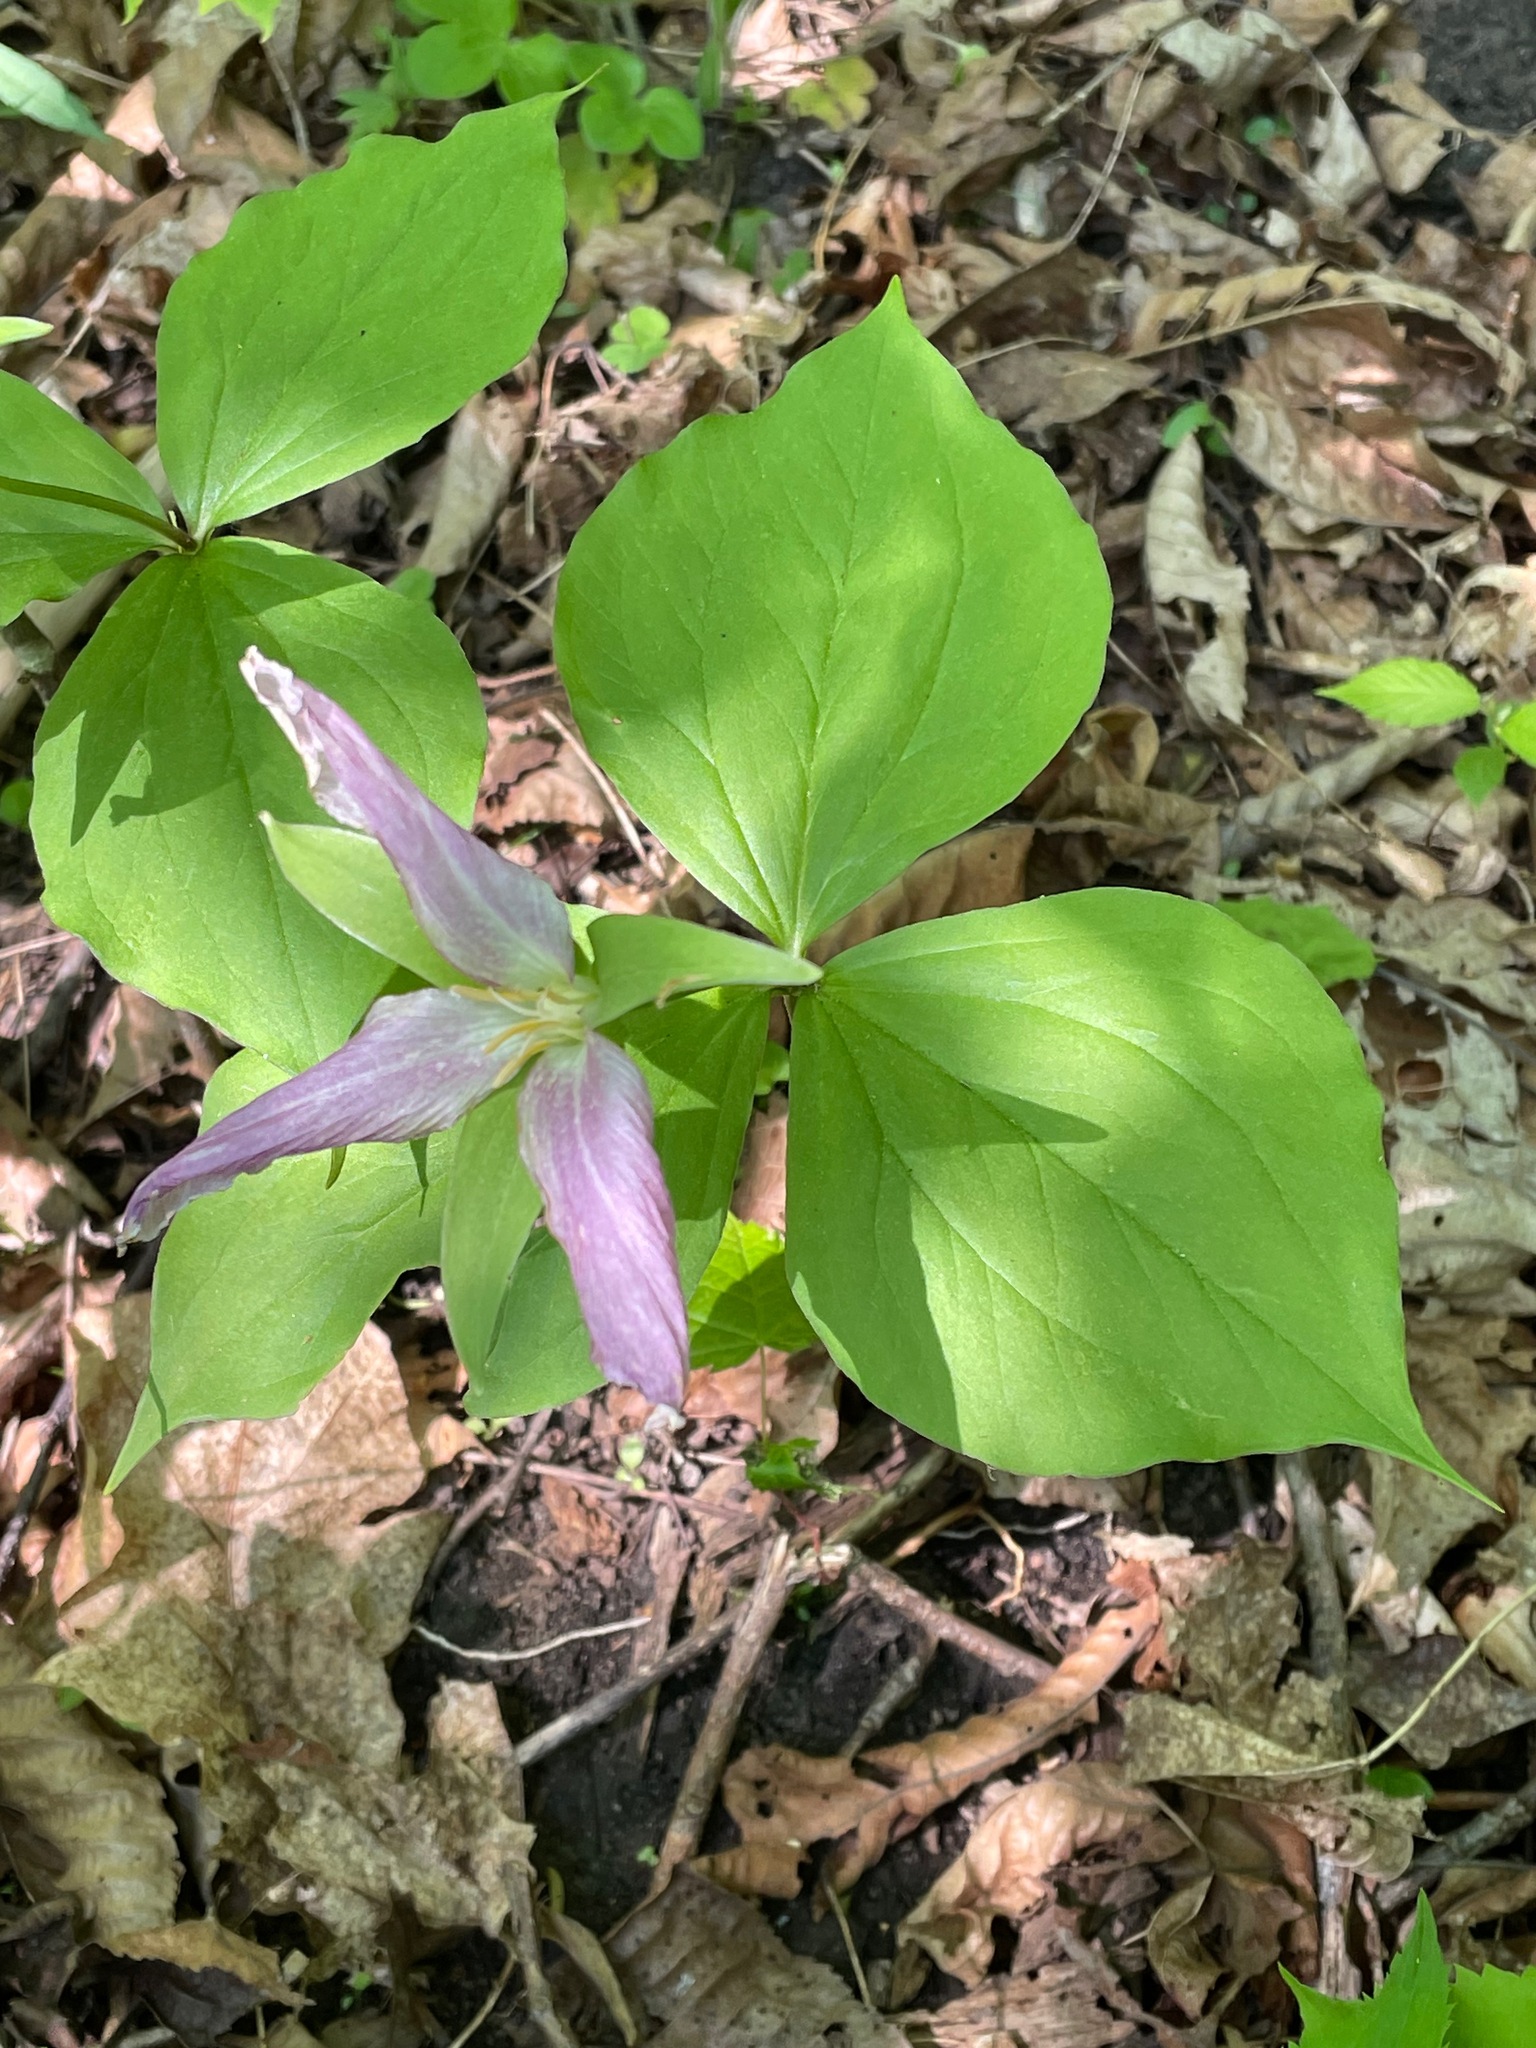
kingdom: Plantae
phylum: Tracheophyta
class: Liliopsida
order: Liliales
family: Melanthiaceae
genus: Trillium
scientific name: Trillium grandiflorum
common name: Great white trillium
